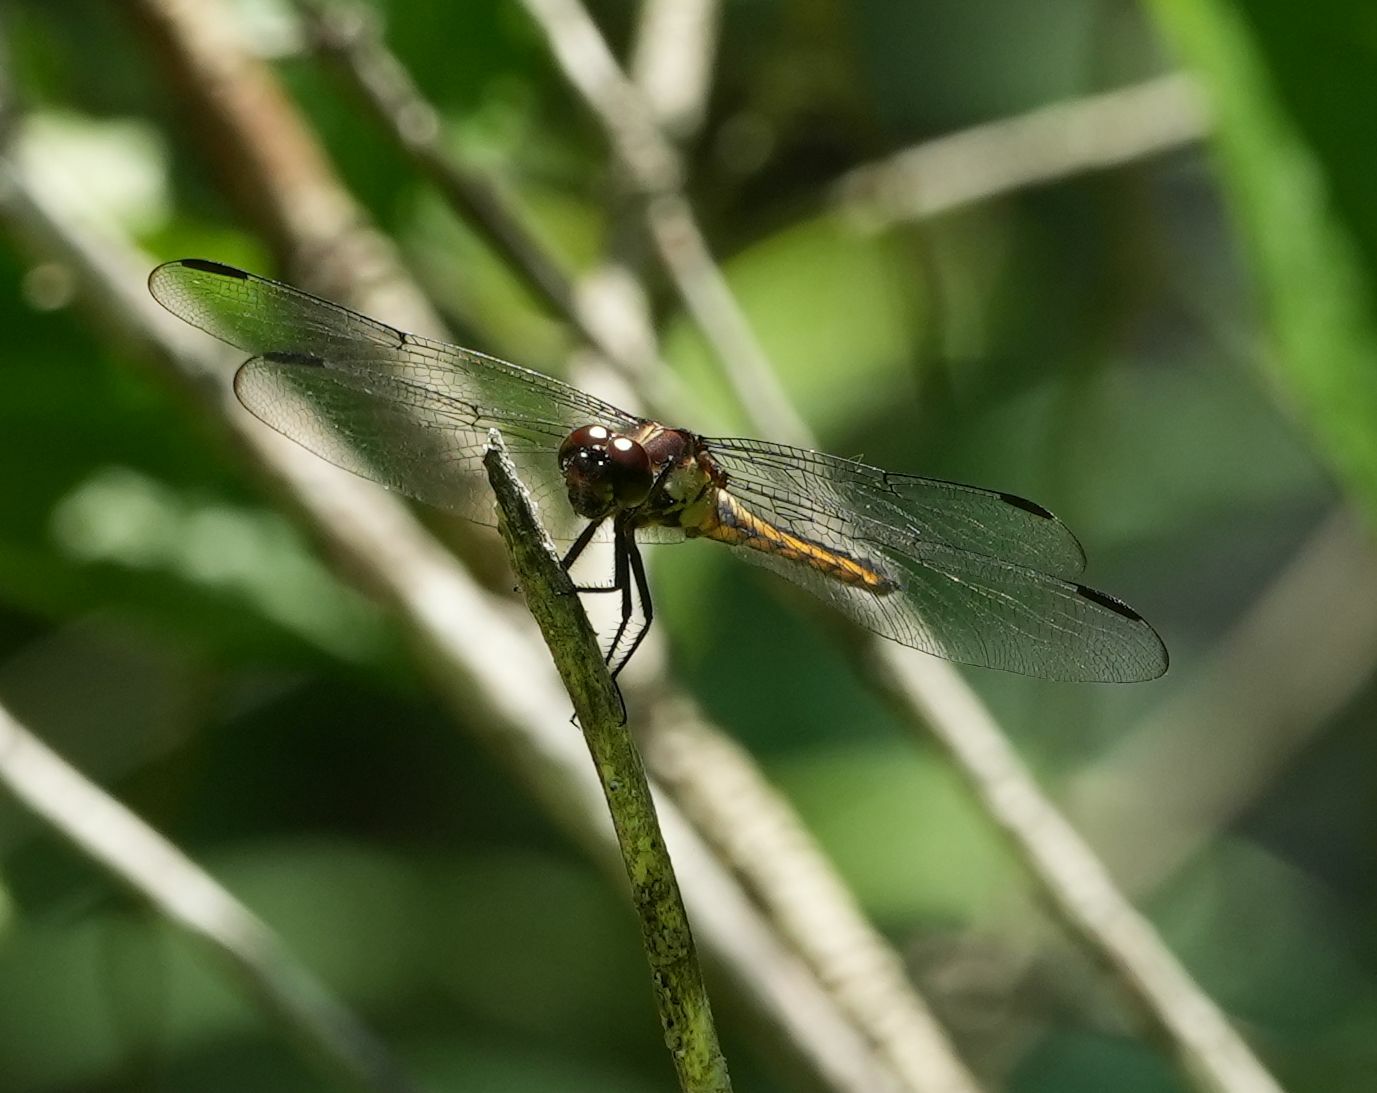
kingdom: Animalia
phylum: Arthropoda
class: Insecta
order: Odonata
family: Libellulidae
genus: Libellula
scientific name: Libellula incesta
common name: Slaty skimmer
